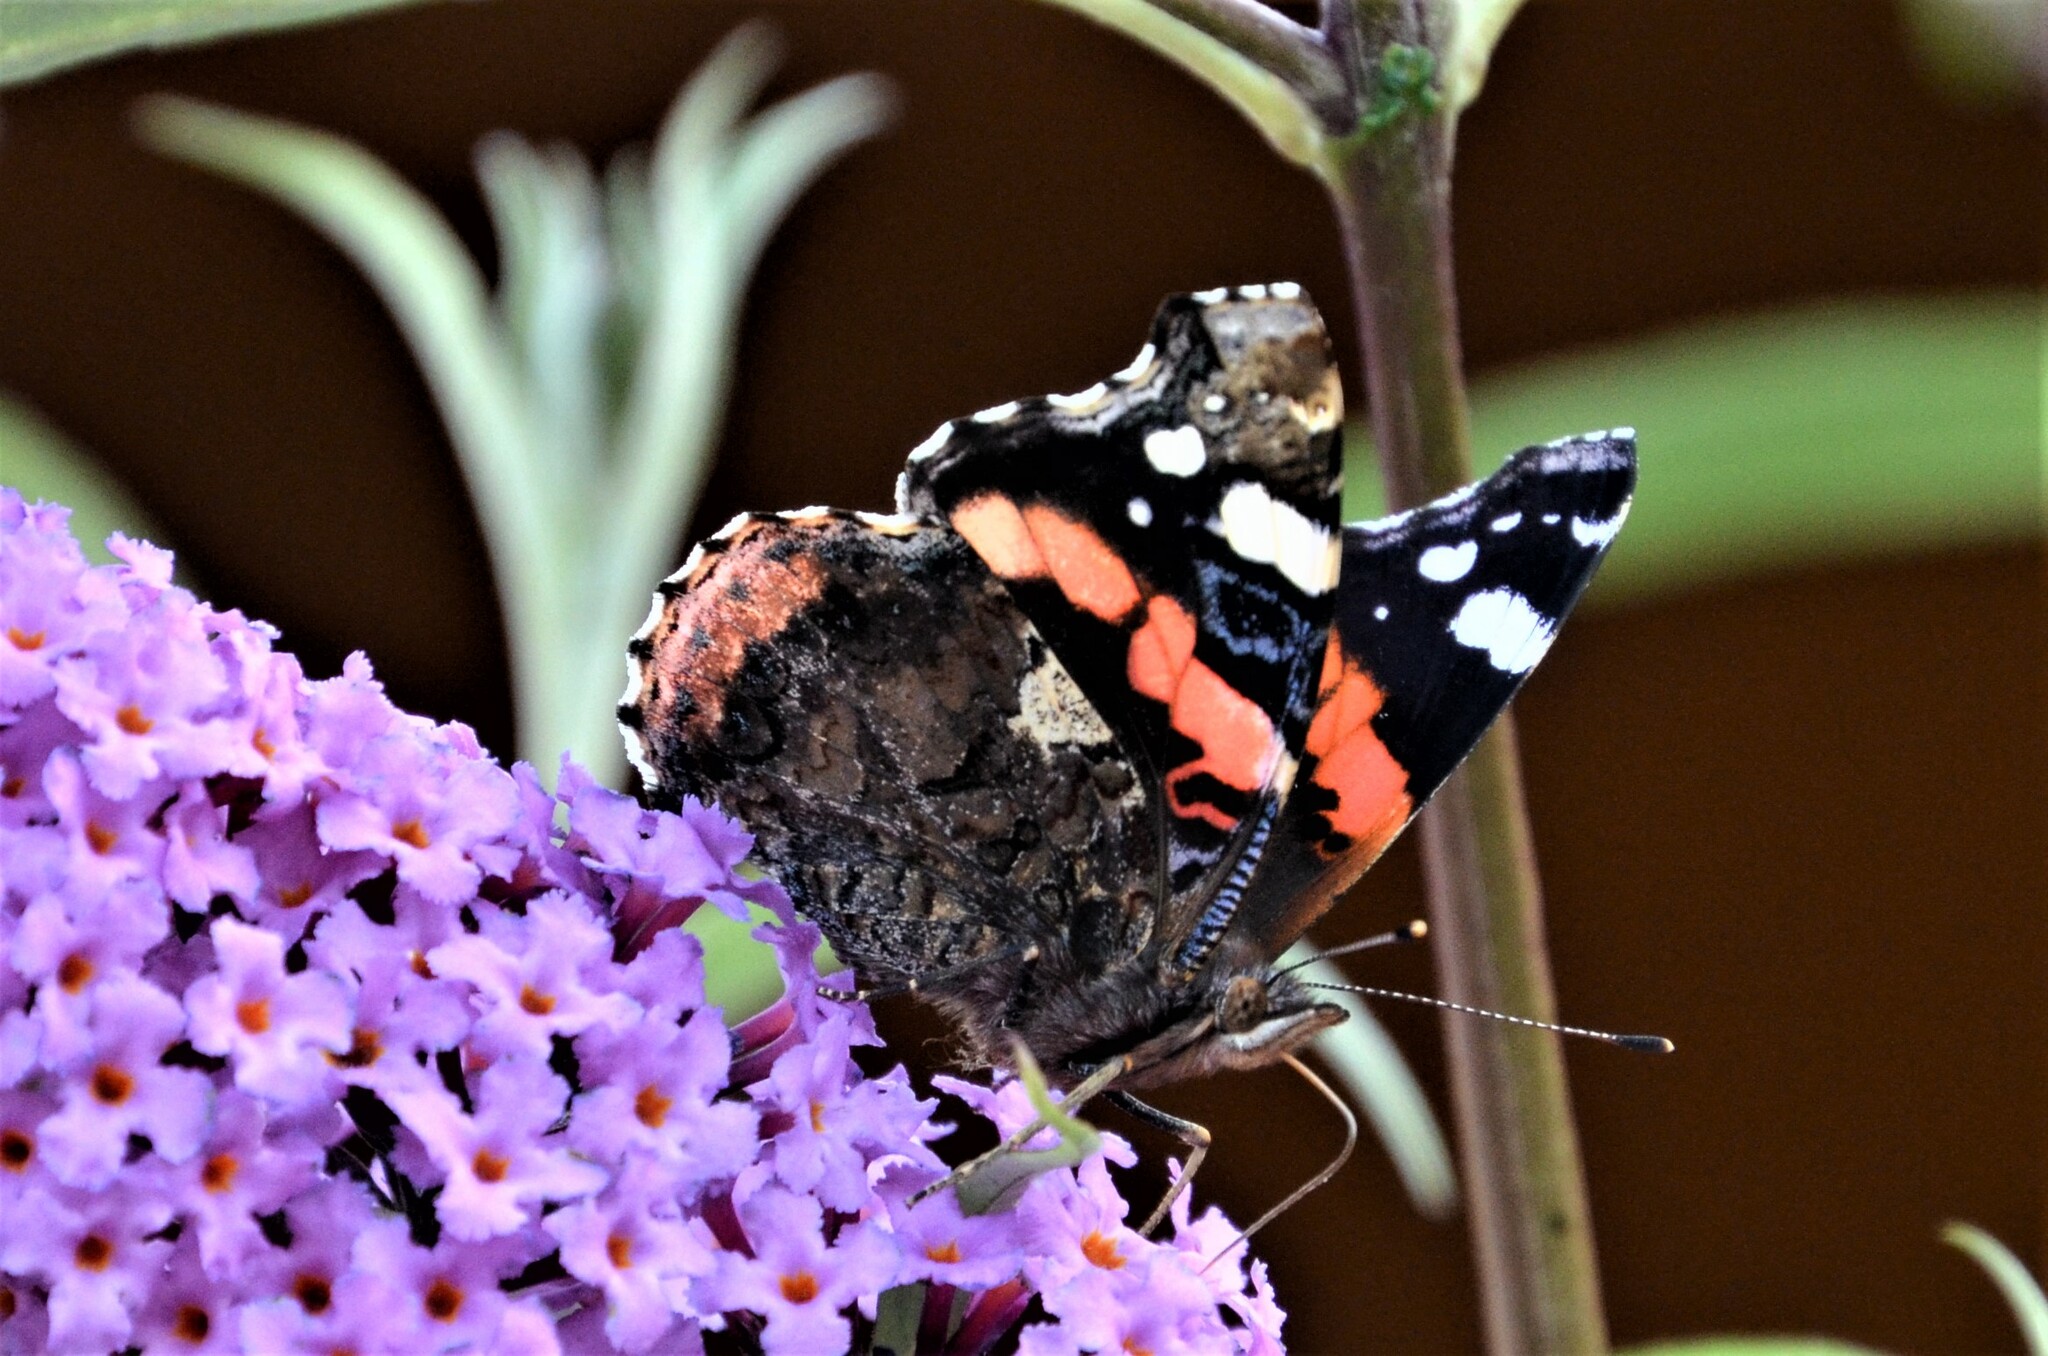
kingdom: Animalia
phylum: Arthropoda
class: Insecta
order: Lepidoptera
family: Nymphalidae
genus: Vanessa
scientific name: Vanessa atalanta
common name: Red admiral
